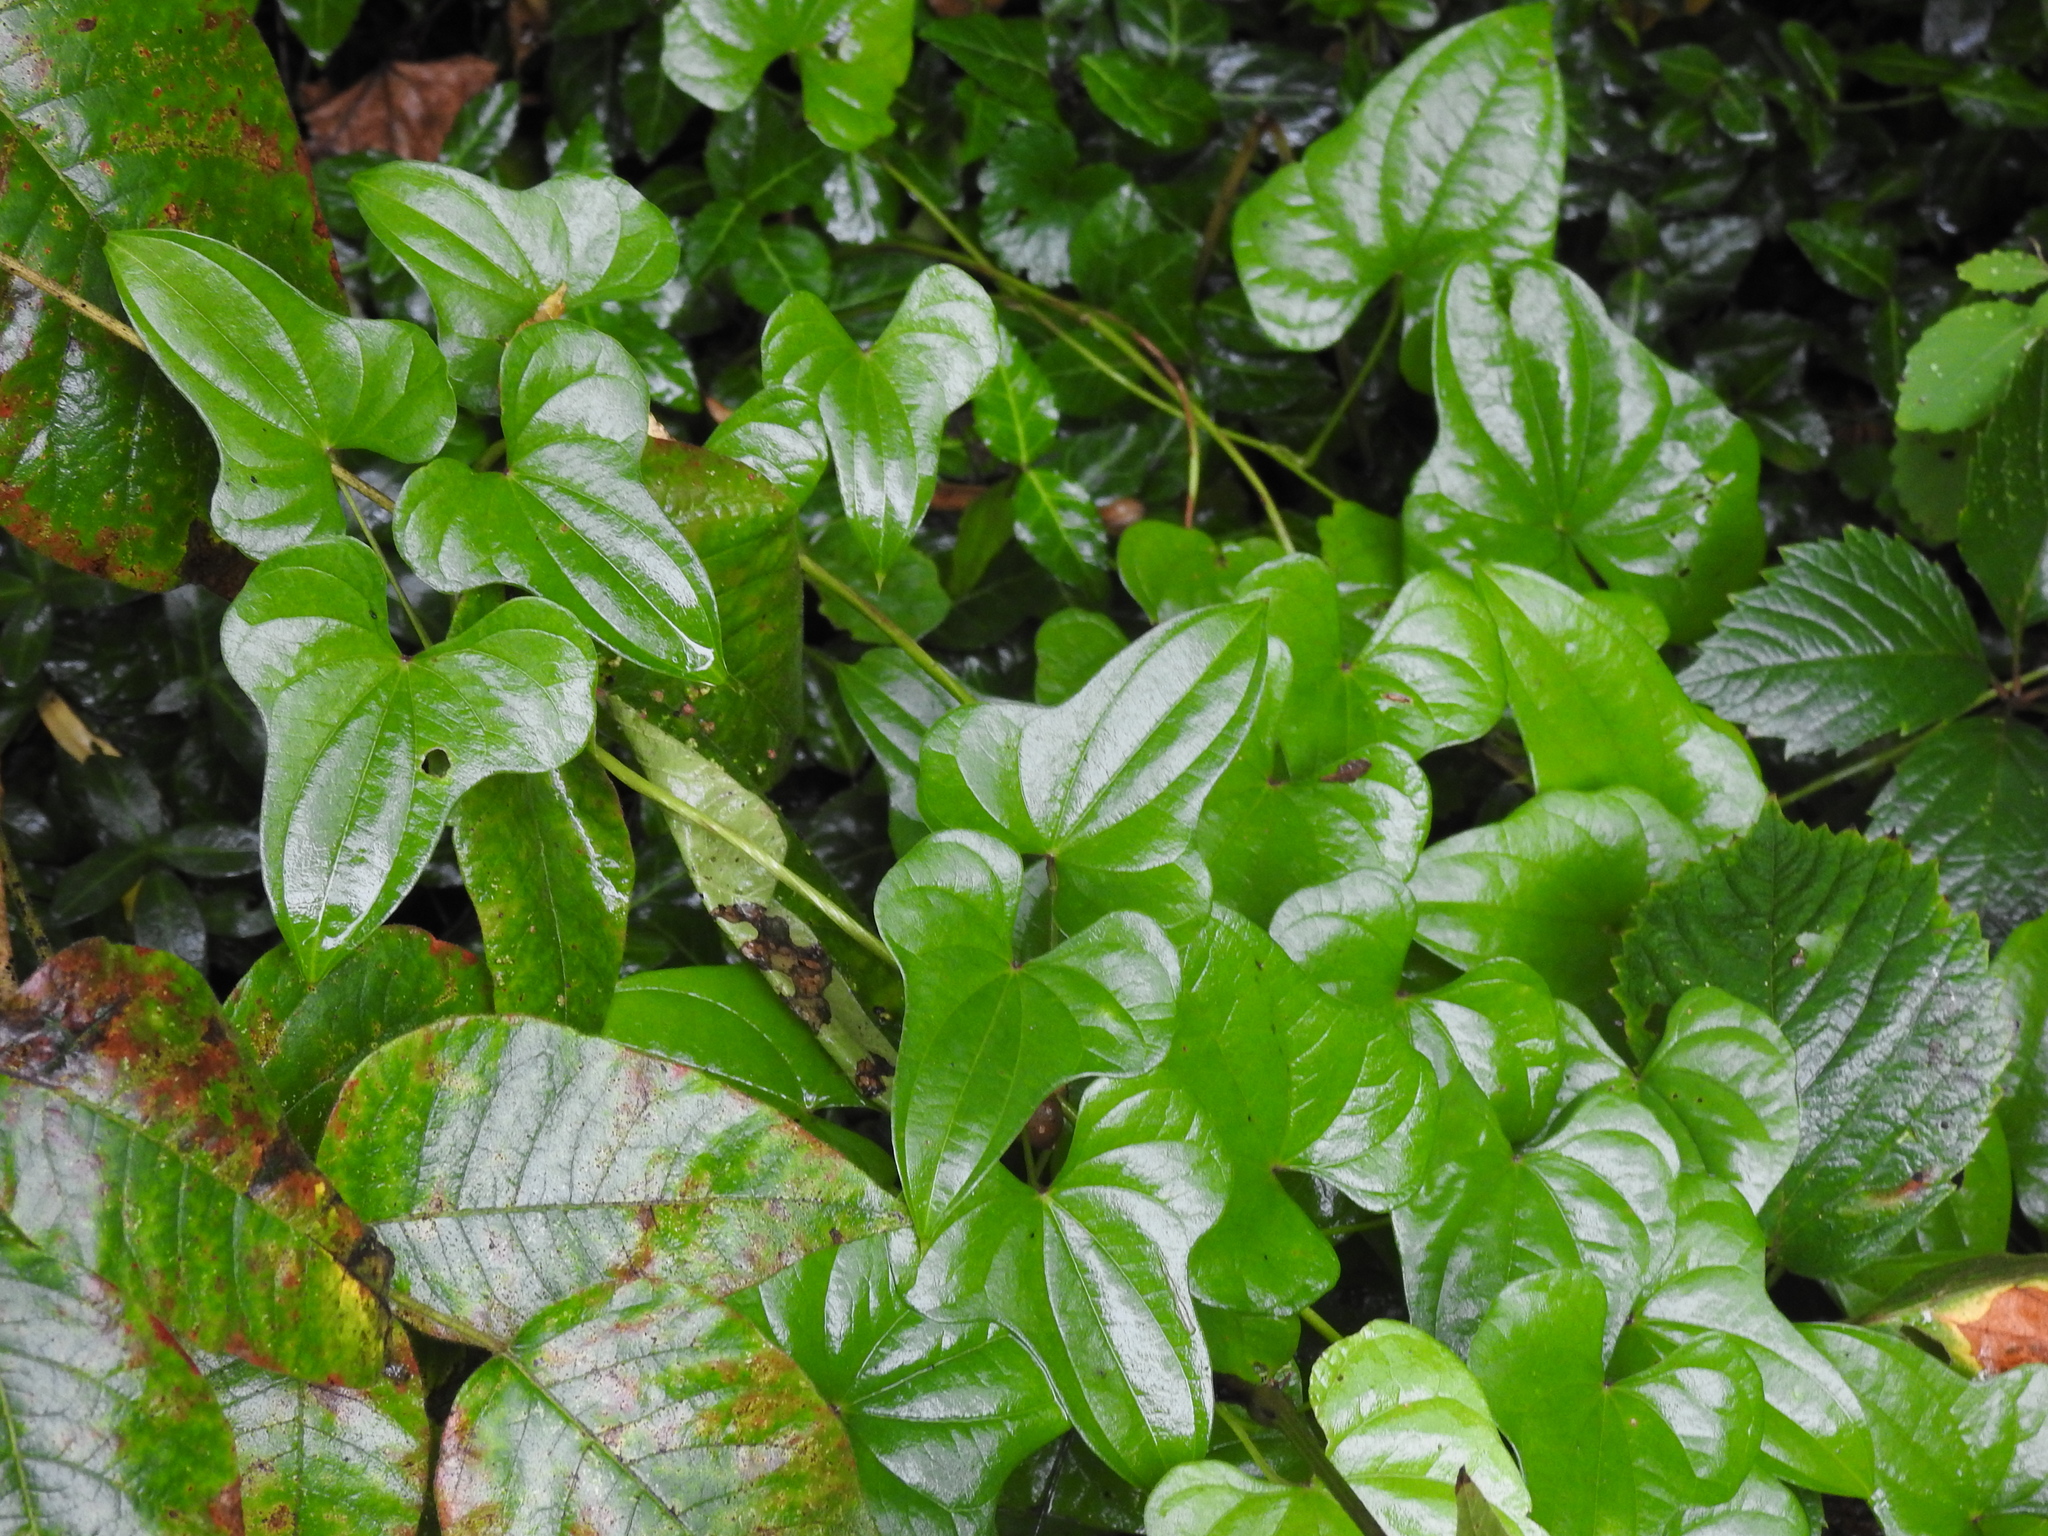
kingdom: Plantae
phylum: Tracheophyta
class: Liliopsida
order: Dioscoreales
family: Dioscoreaceae
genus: Dioscorea
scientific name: Dioscorea polystachya
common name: Chinese yam
